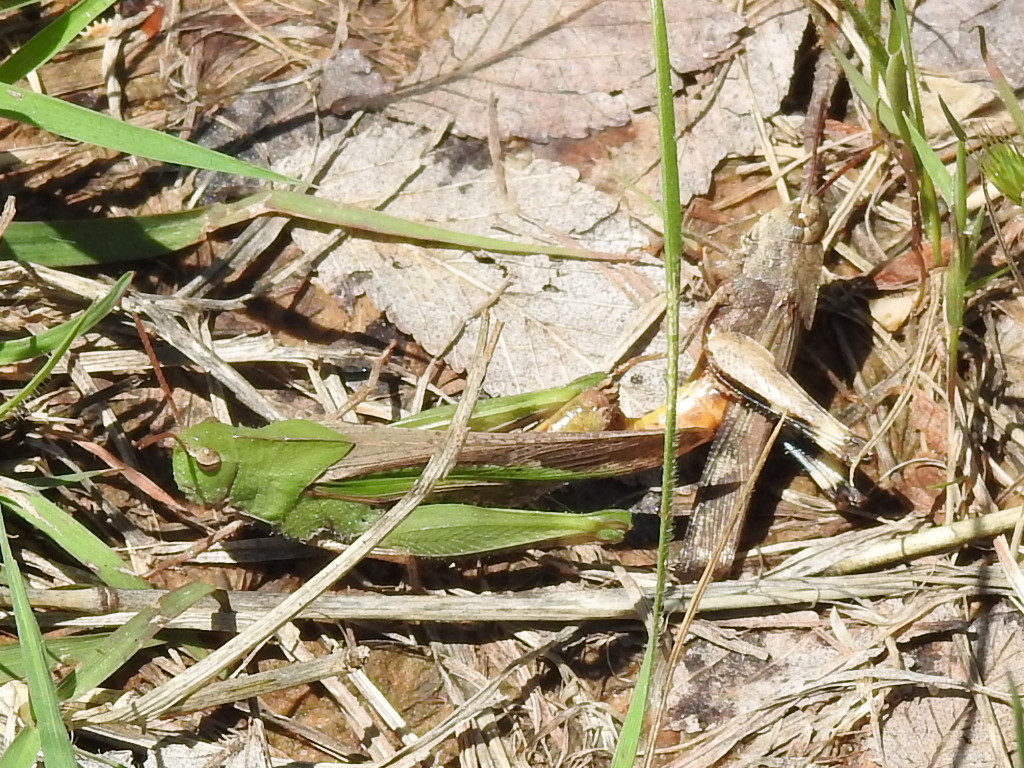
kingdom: Animalia
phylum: Arthropoda
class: Insecta
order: Orthoptera
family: Acrididae
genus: Chortophaga
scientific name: Chortophaga viridifasciata
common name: Green-striped grasshopper
